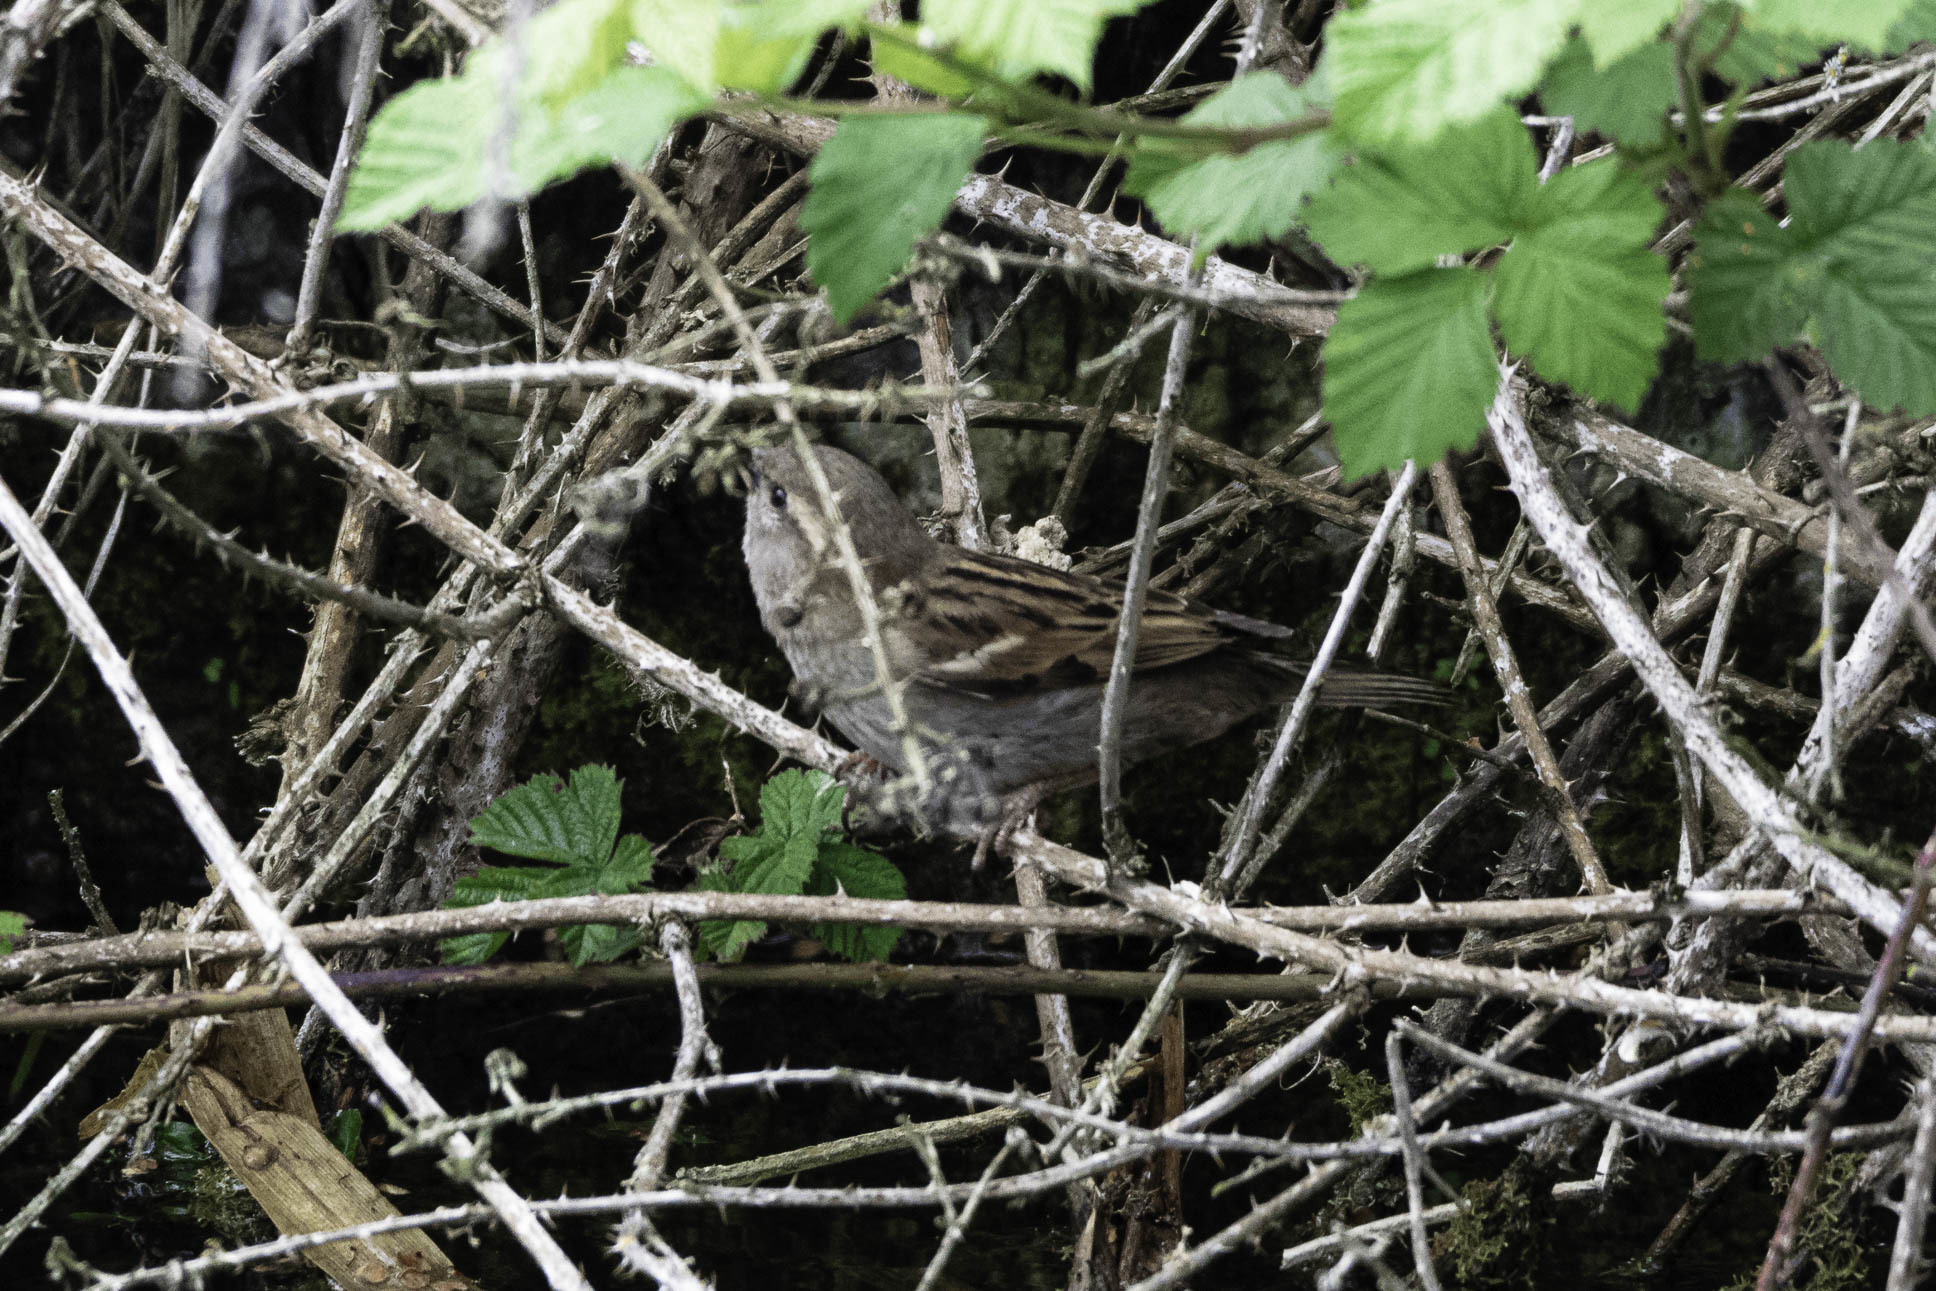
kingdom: Animalia
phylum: Chordata
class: Aves
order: Passeriformes
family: Passeridae
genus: Passer
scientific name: Passer domesticus
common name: House sparrow
